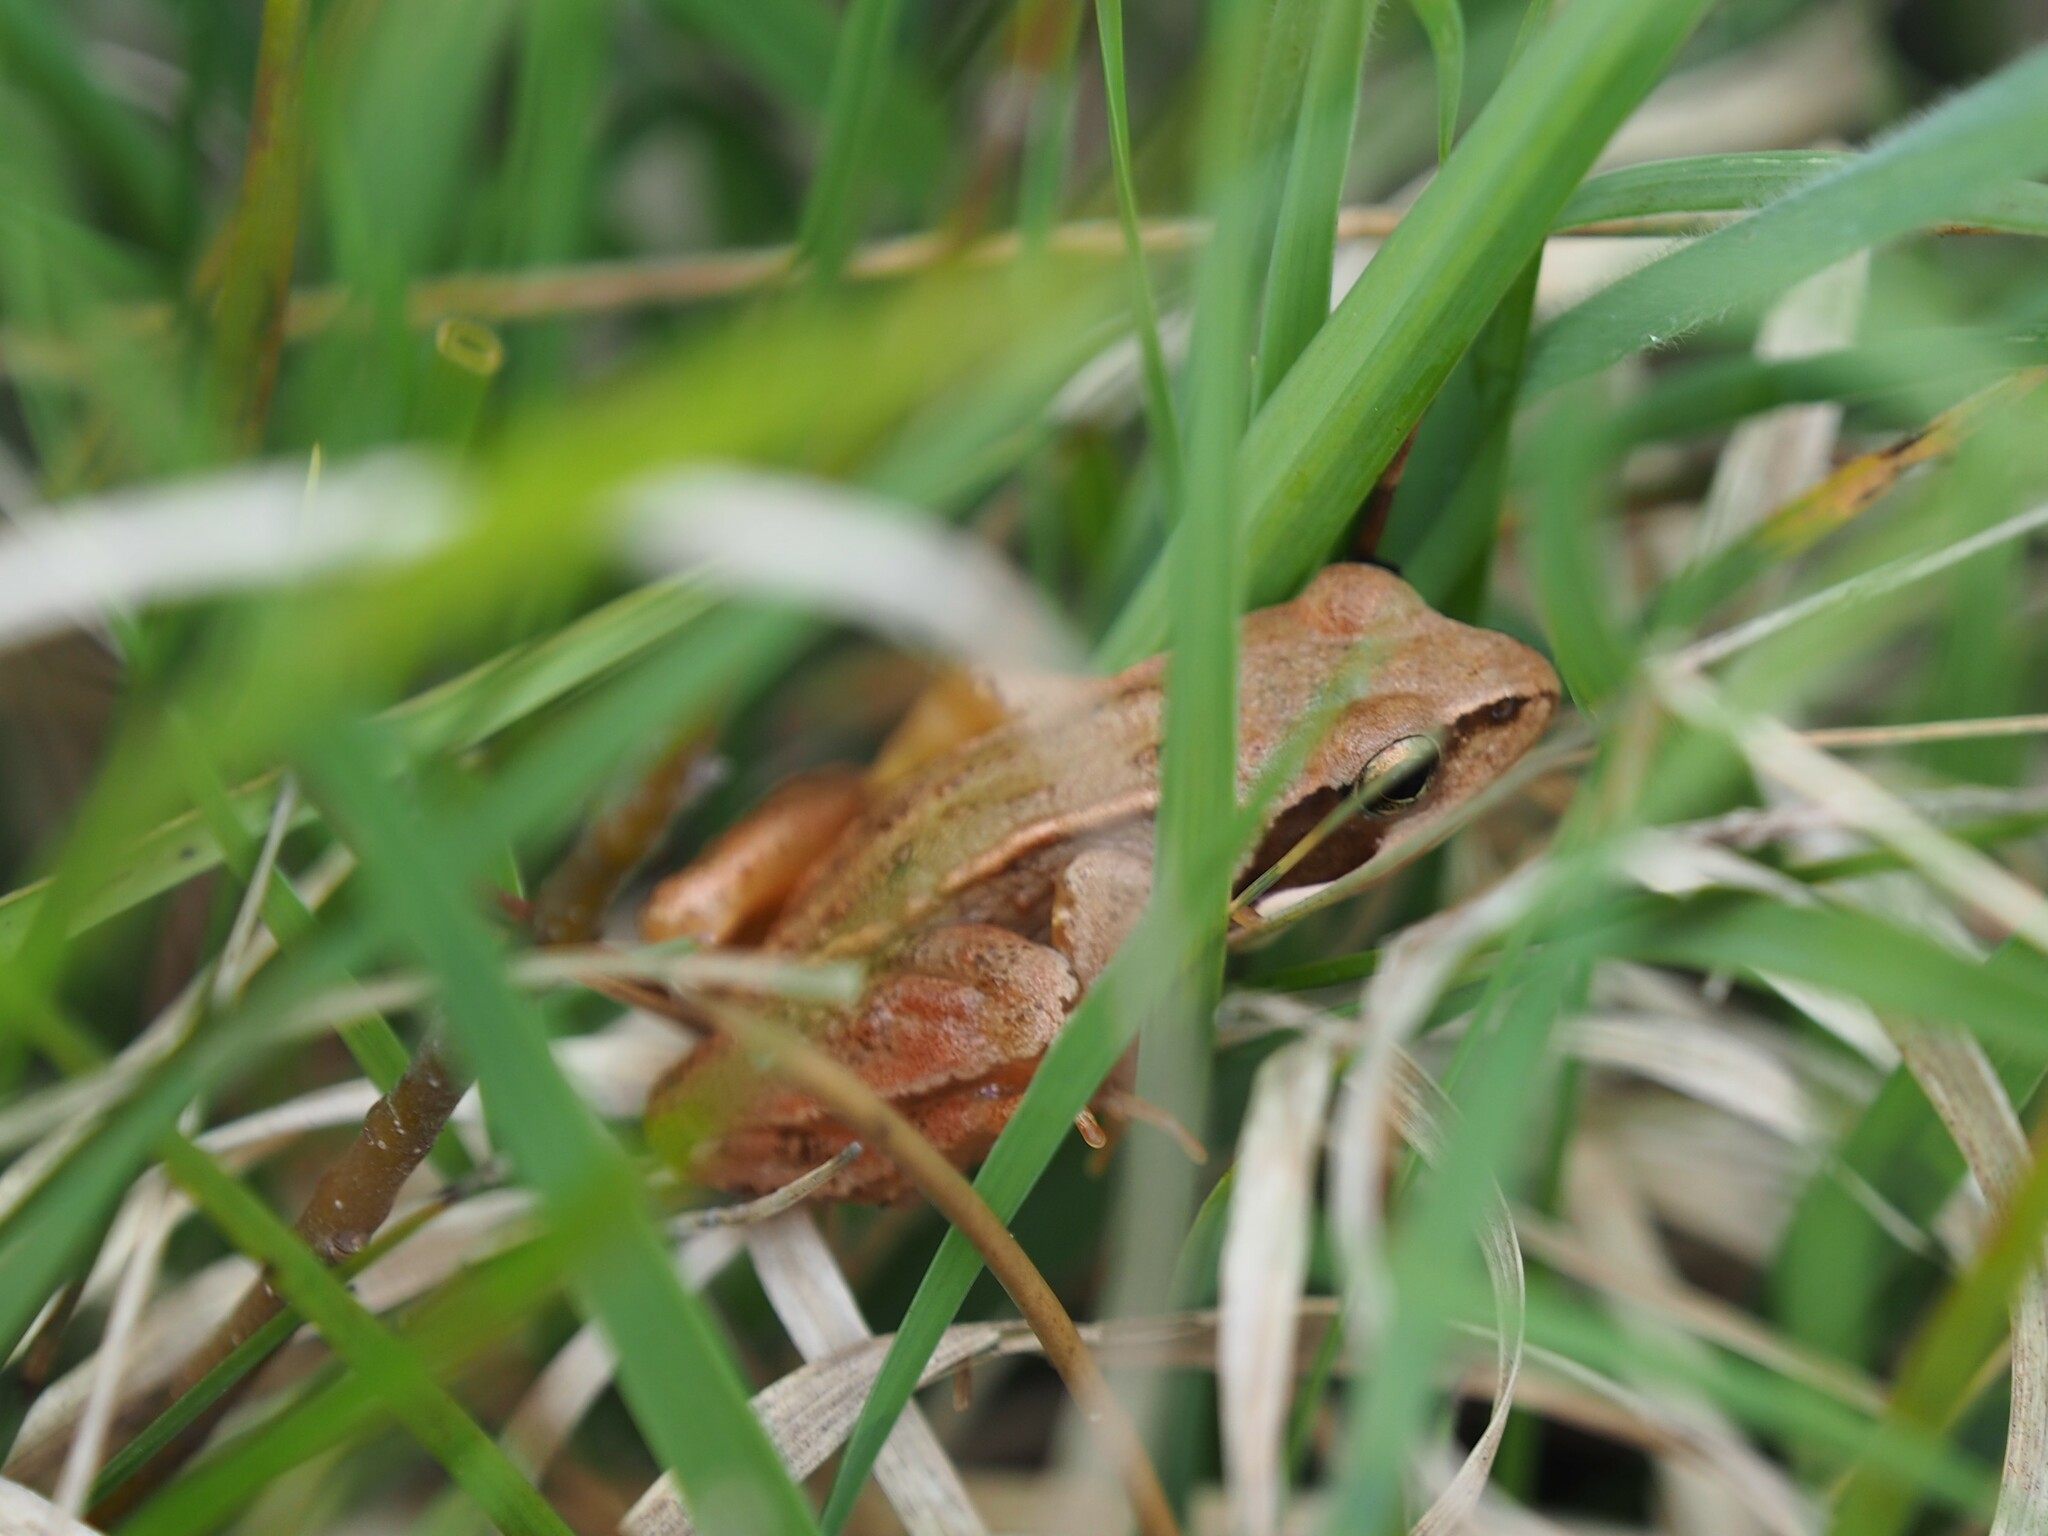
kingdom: Animalia
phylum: Chordata
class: Amphibia
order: Anura
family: Ranidae
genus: Rana
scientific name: Rana temporaria
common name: Common frog
